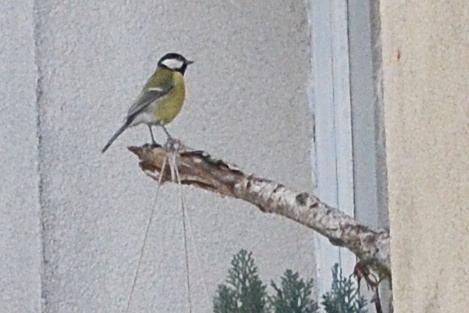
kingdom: Animalia
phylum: Chordata
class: Aves
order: Passeriformes
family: Paridae
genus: Parus
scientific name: Parus major
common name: Great tit
